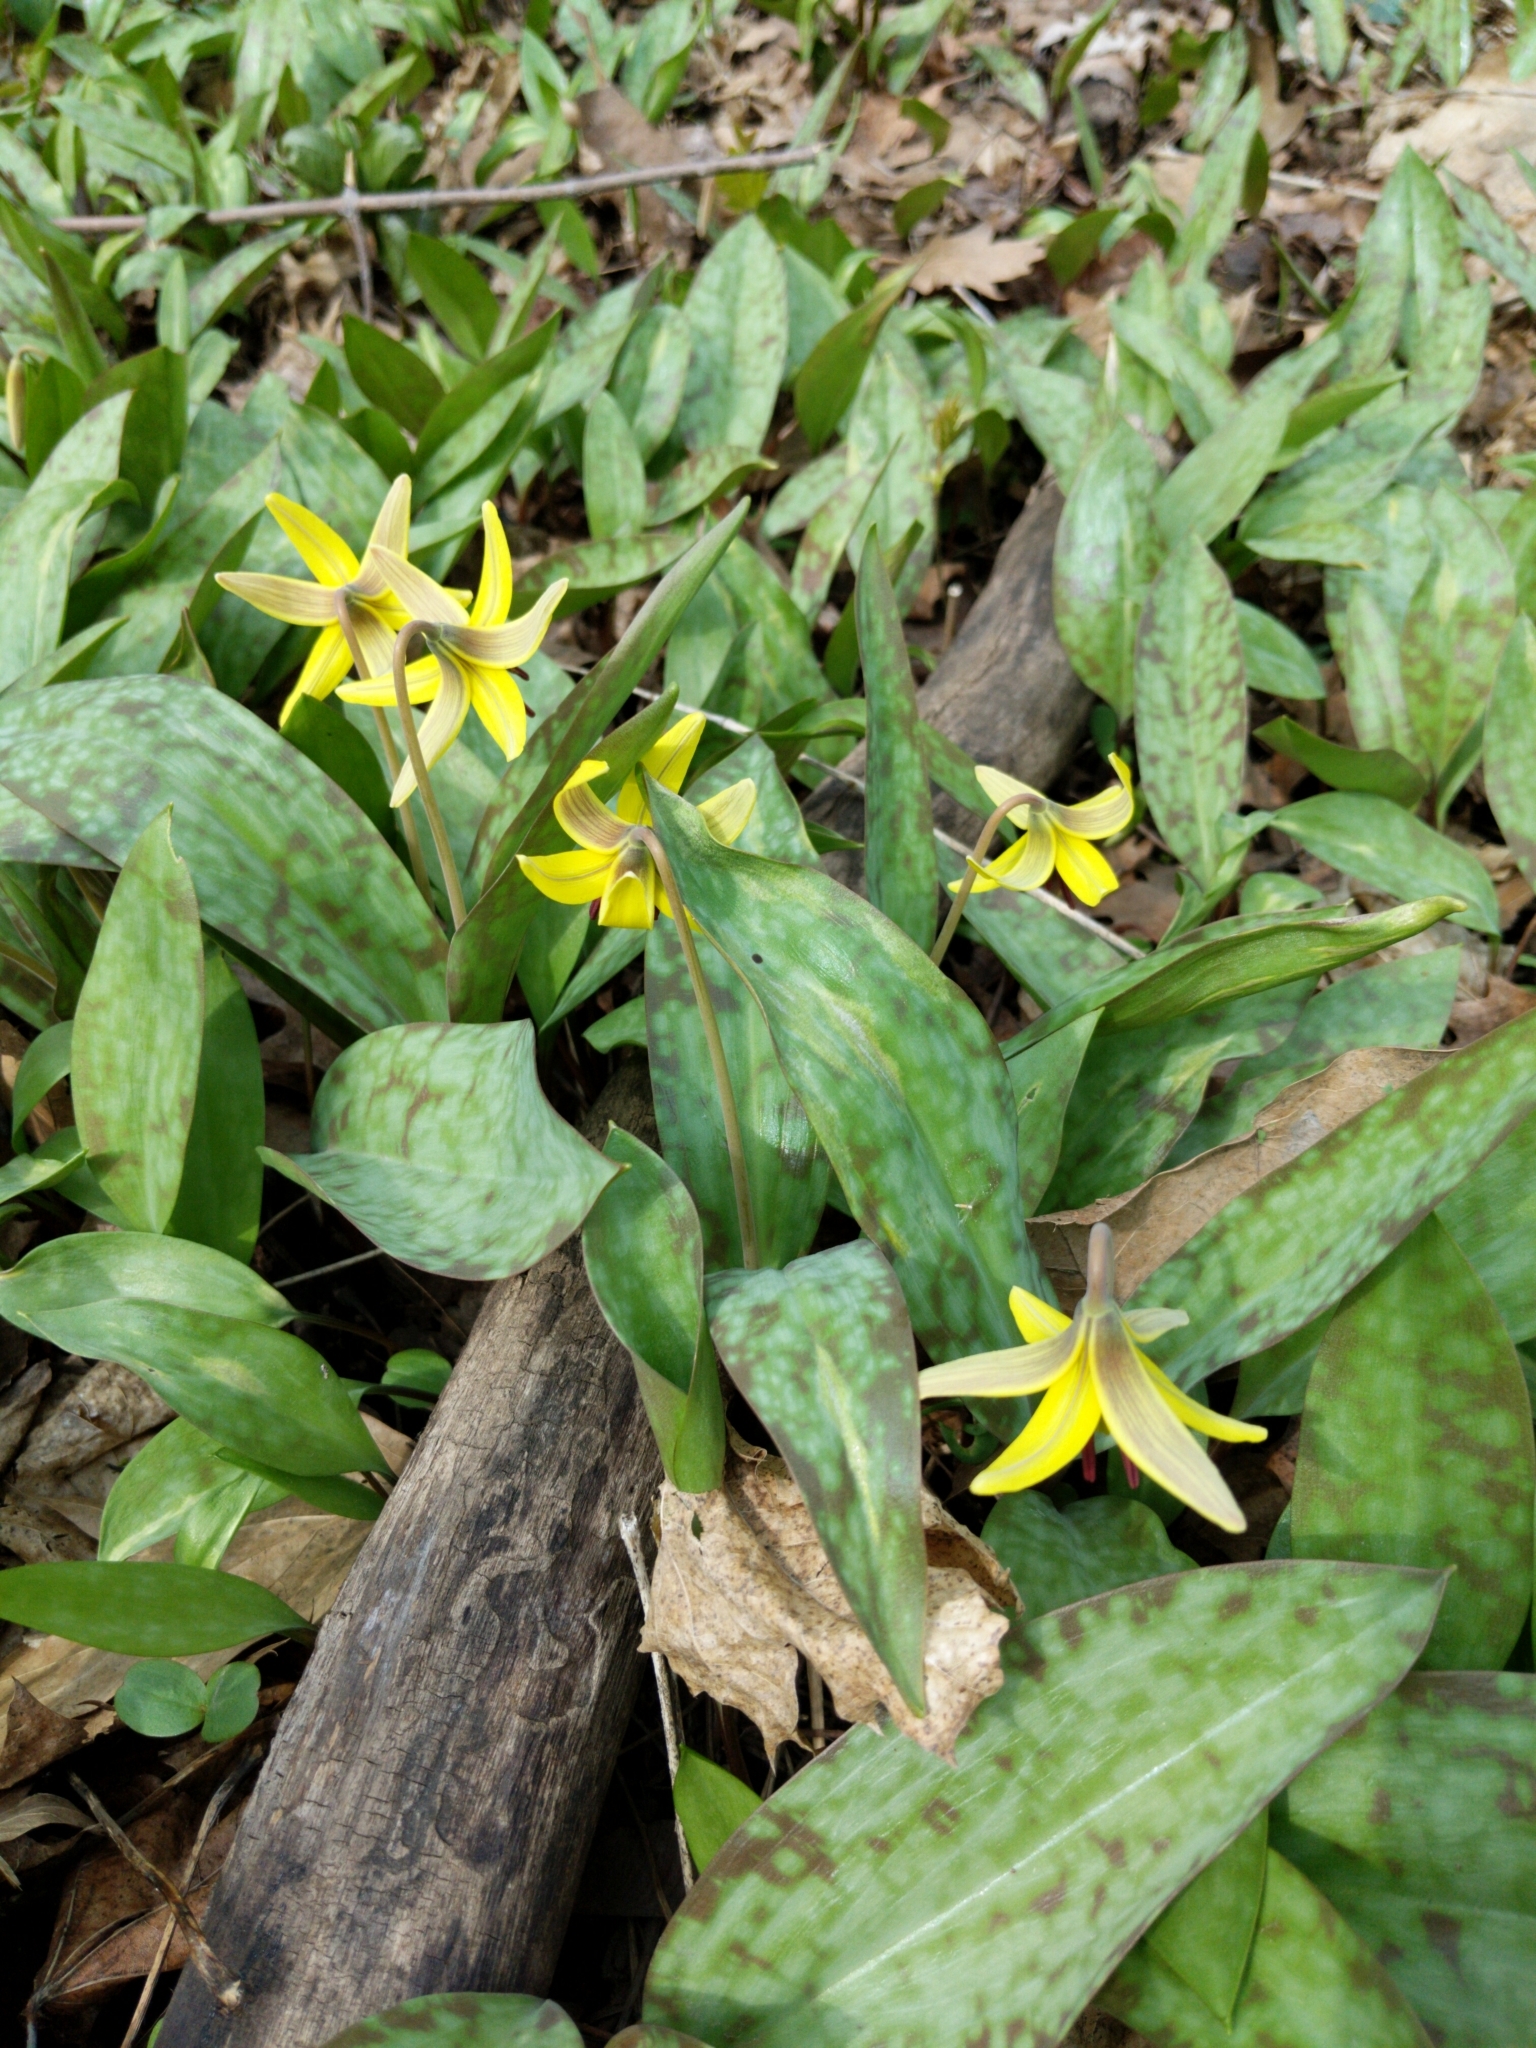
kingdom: Plantae
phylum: Tracheophyta
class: Liliopsida
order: Liliales
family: Liliaceae
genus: Erythronium
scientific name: Erythronium americanum
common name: Yellow adder's-tongue
